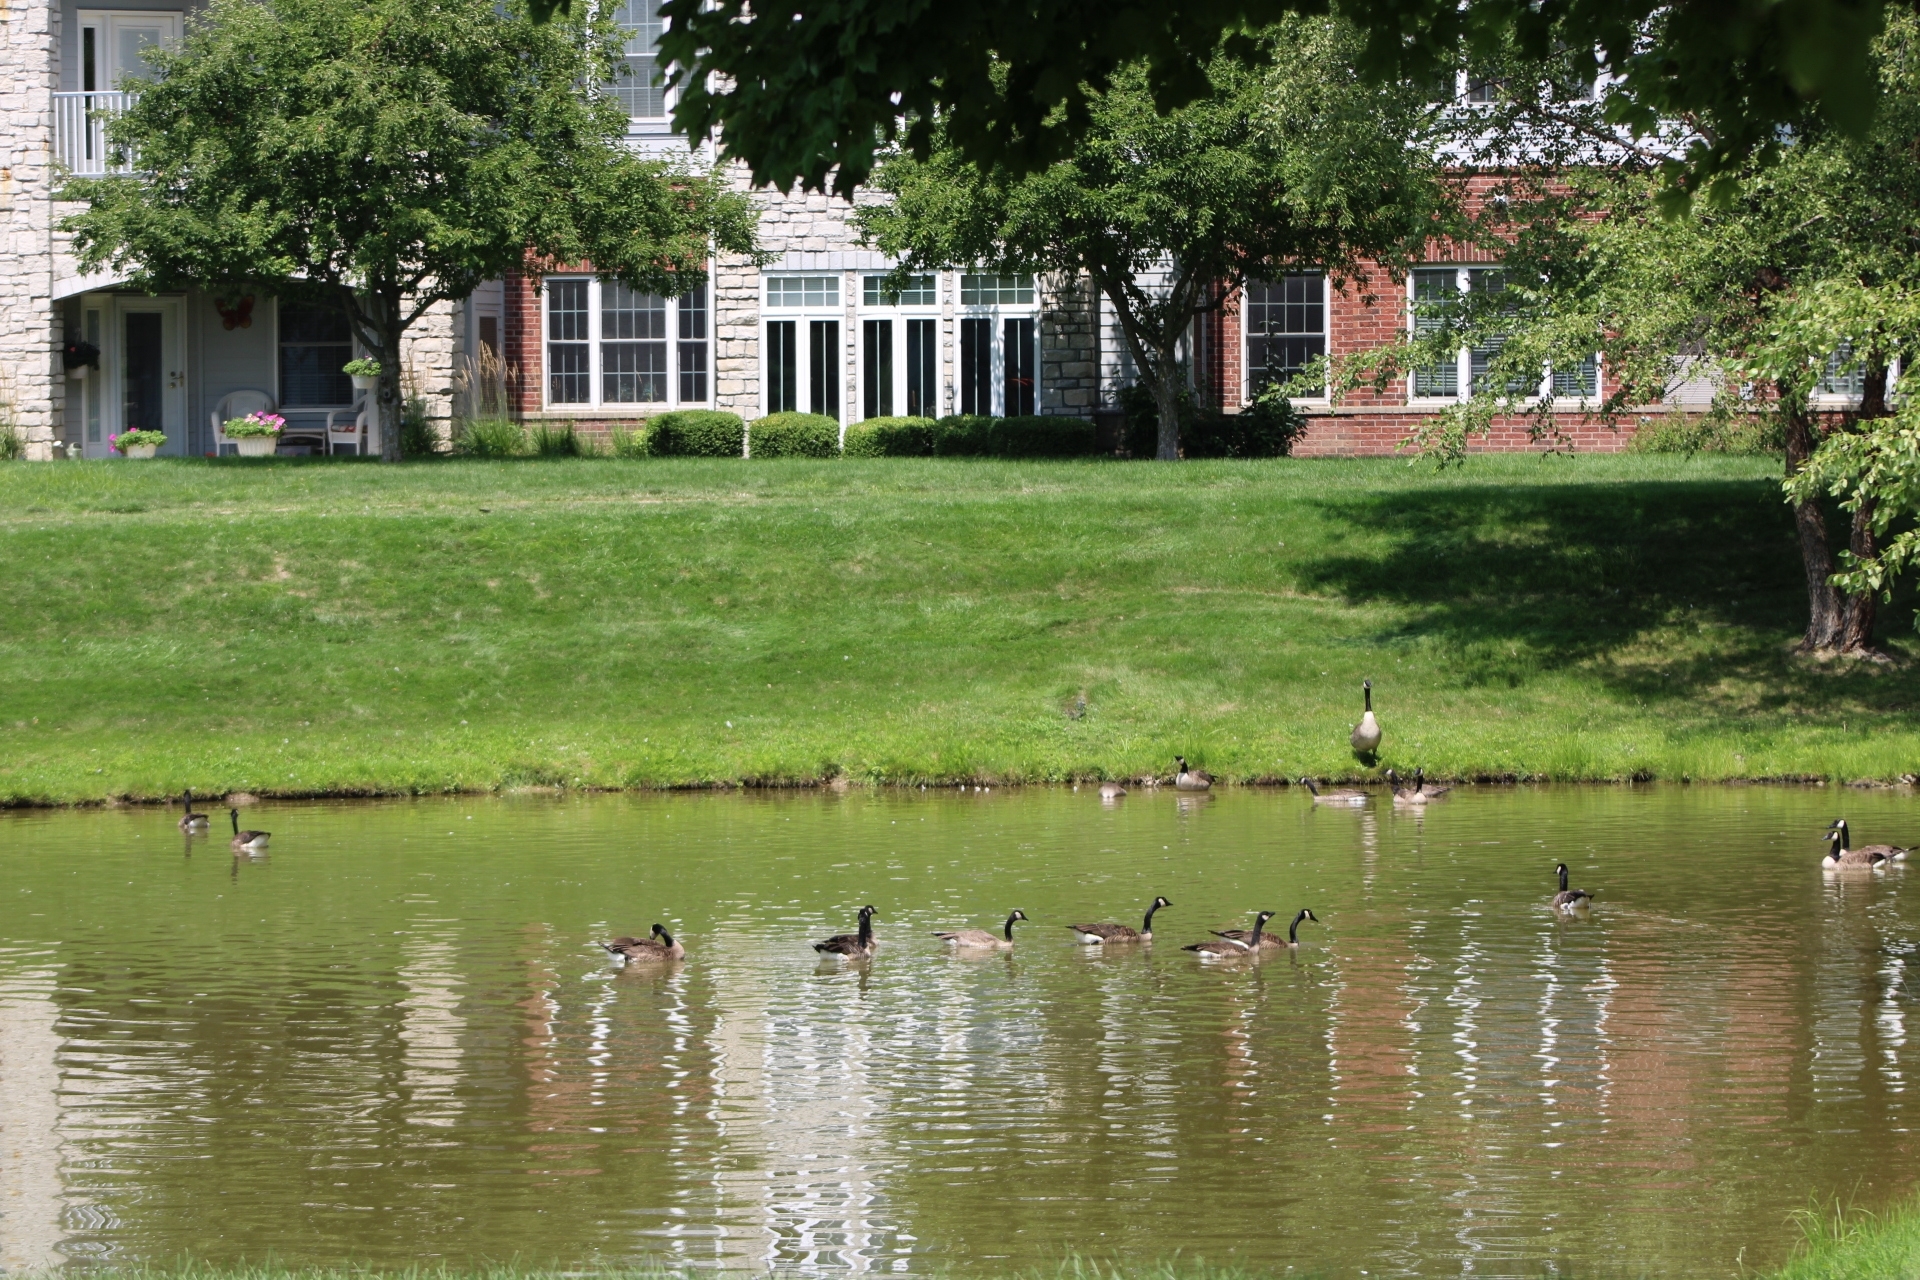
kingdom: Animalia
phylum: Chordata
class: Aves
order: Anseriformes
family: Anatidae
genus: Branta
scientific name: Branta canadensis
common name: Canada goose
